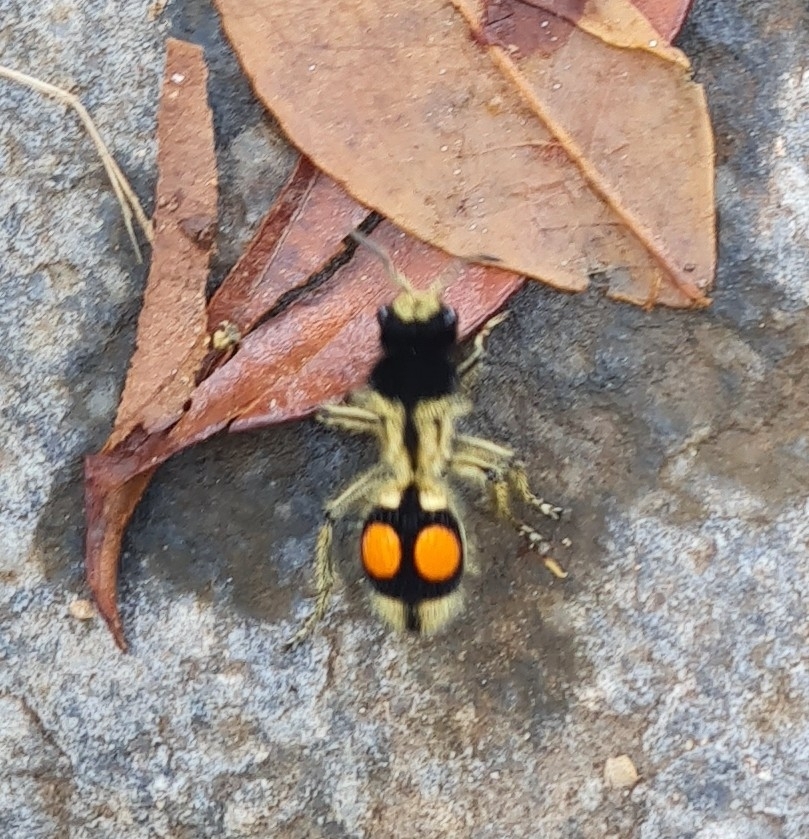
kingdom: Animalia
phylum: Arthropoda
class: Insecta
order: Hymenoptera
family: Mutillidae
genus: Hoplomutilla
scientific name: Hoplomutilla
